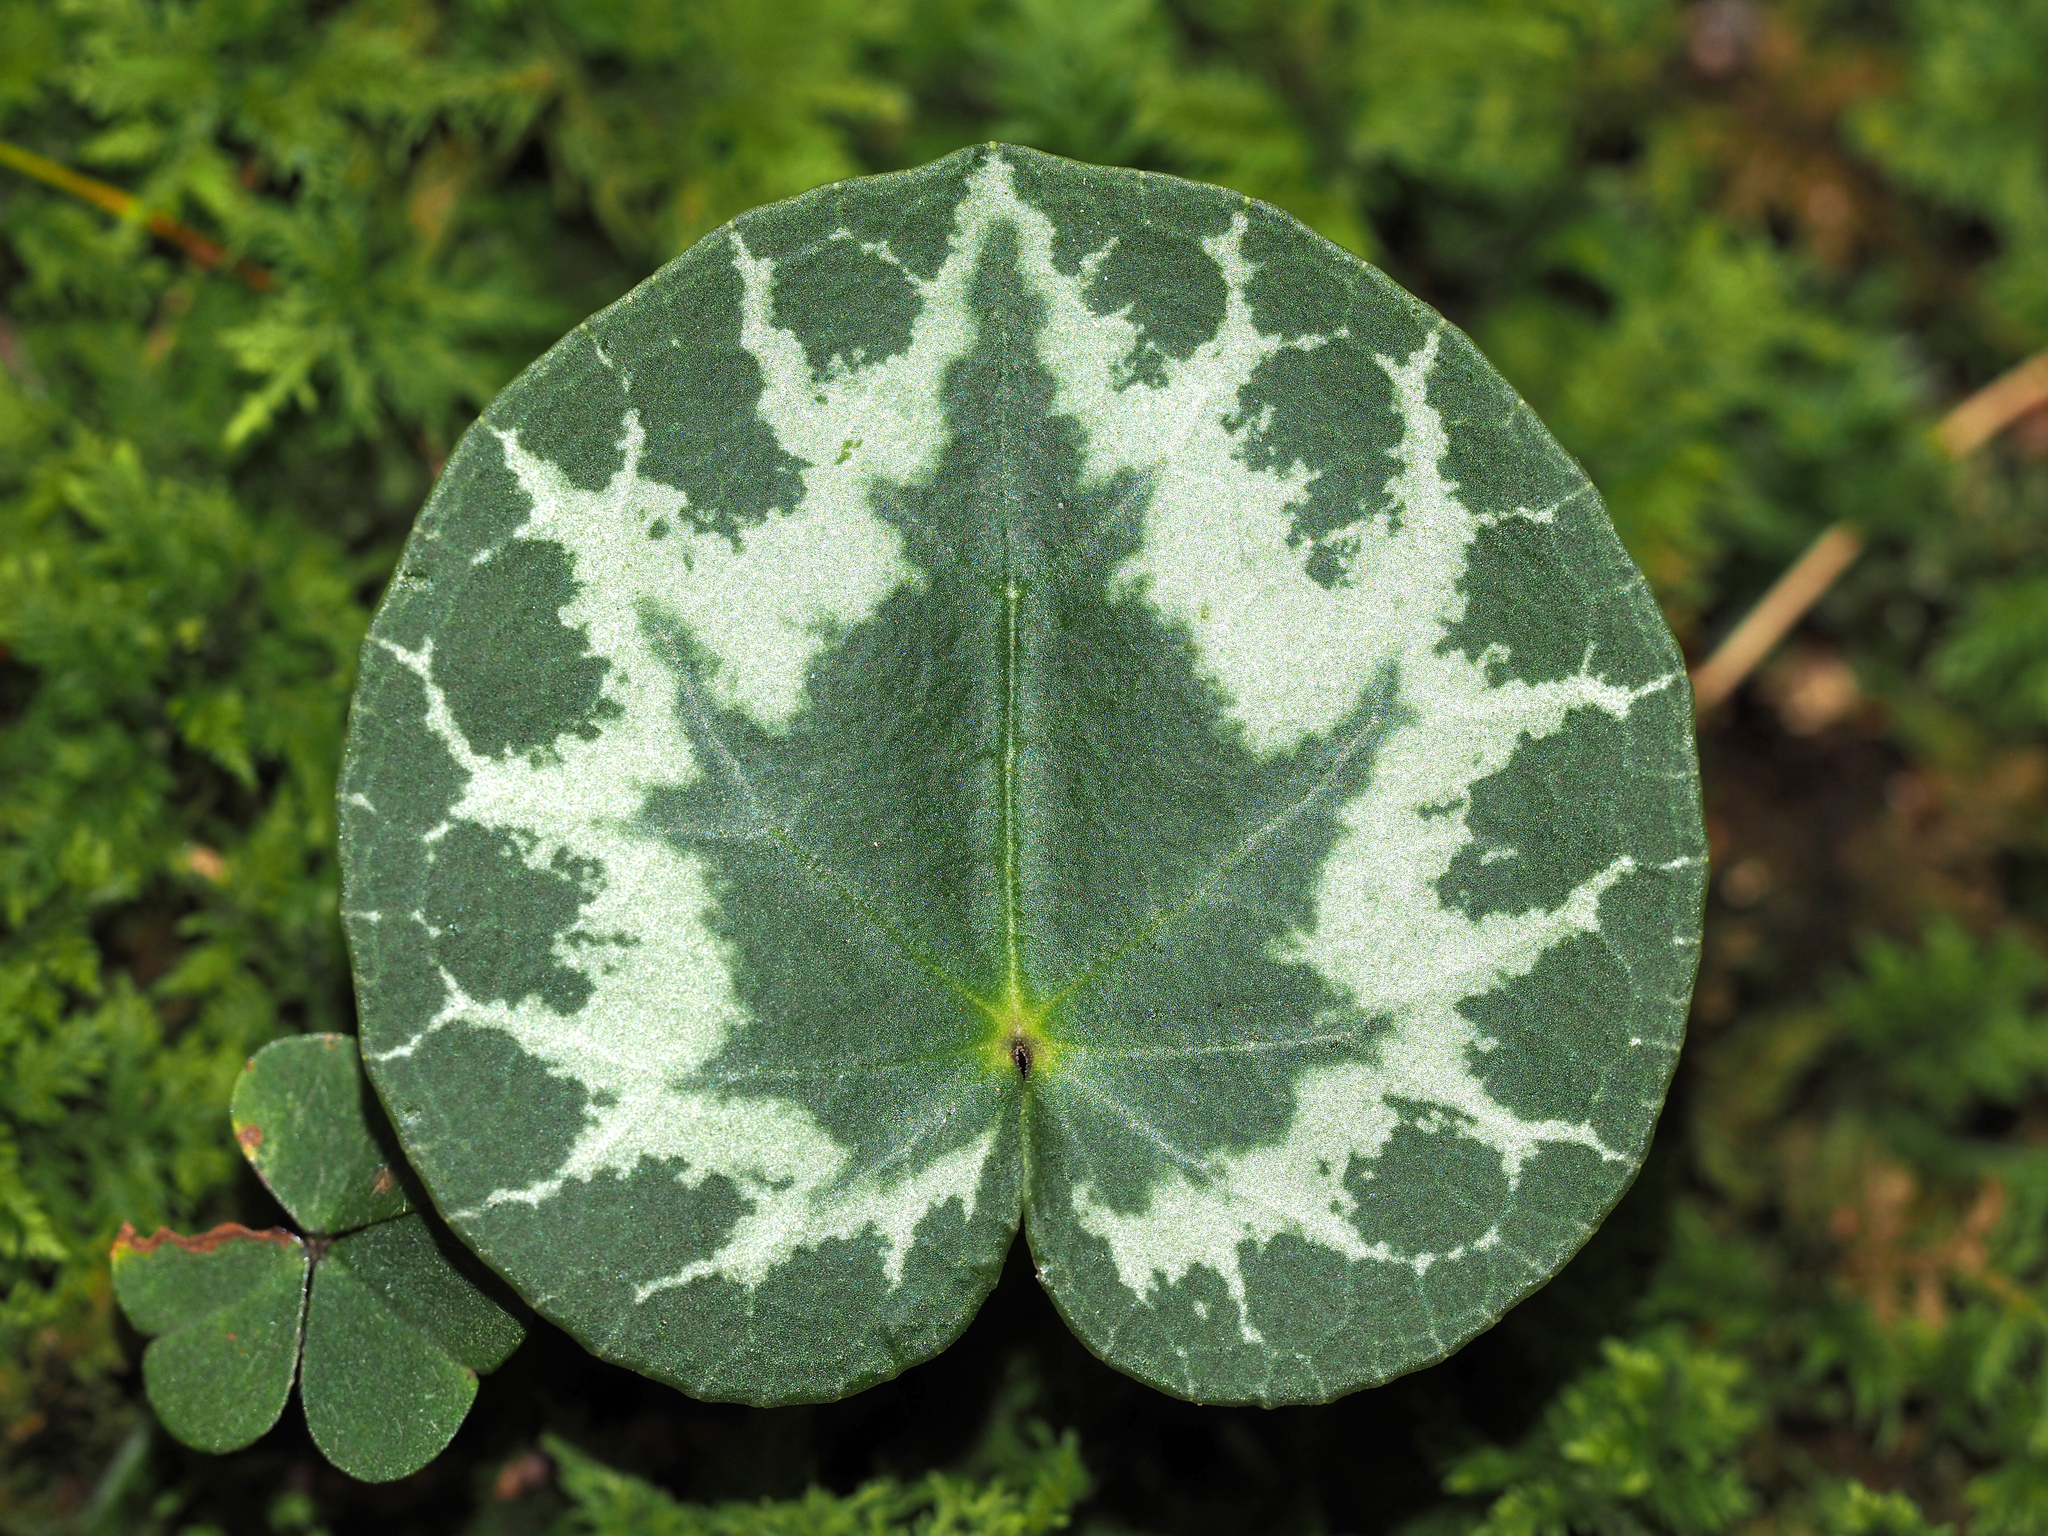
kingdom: Plantae
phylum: Tracheophyta
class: Magnoliopsida
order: Ericales
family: Primulaceae
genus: Cyclamen
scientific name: Cyclamen purpurascens
